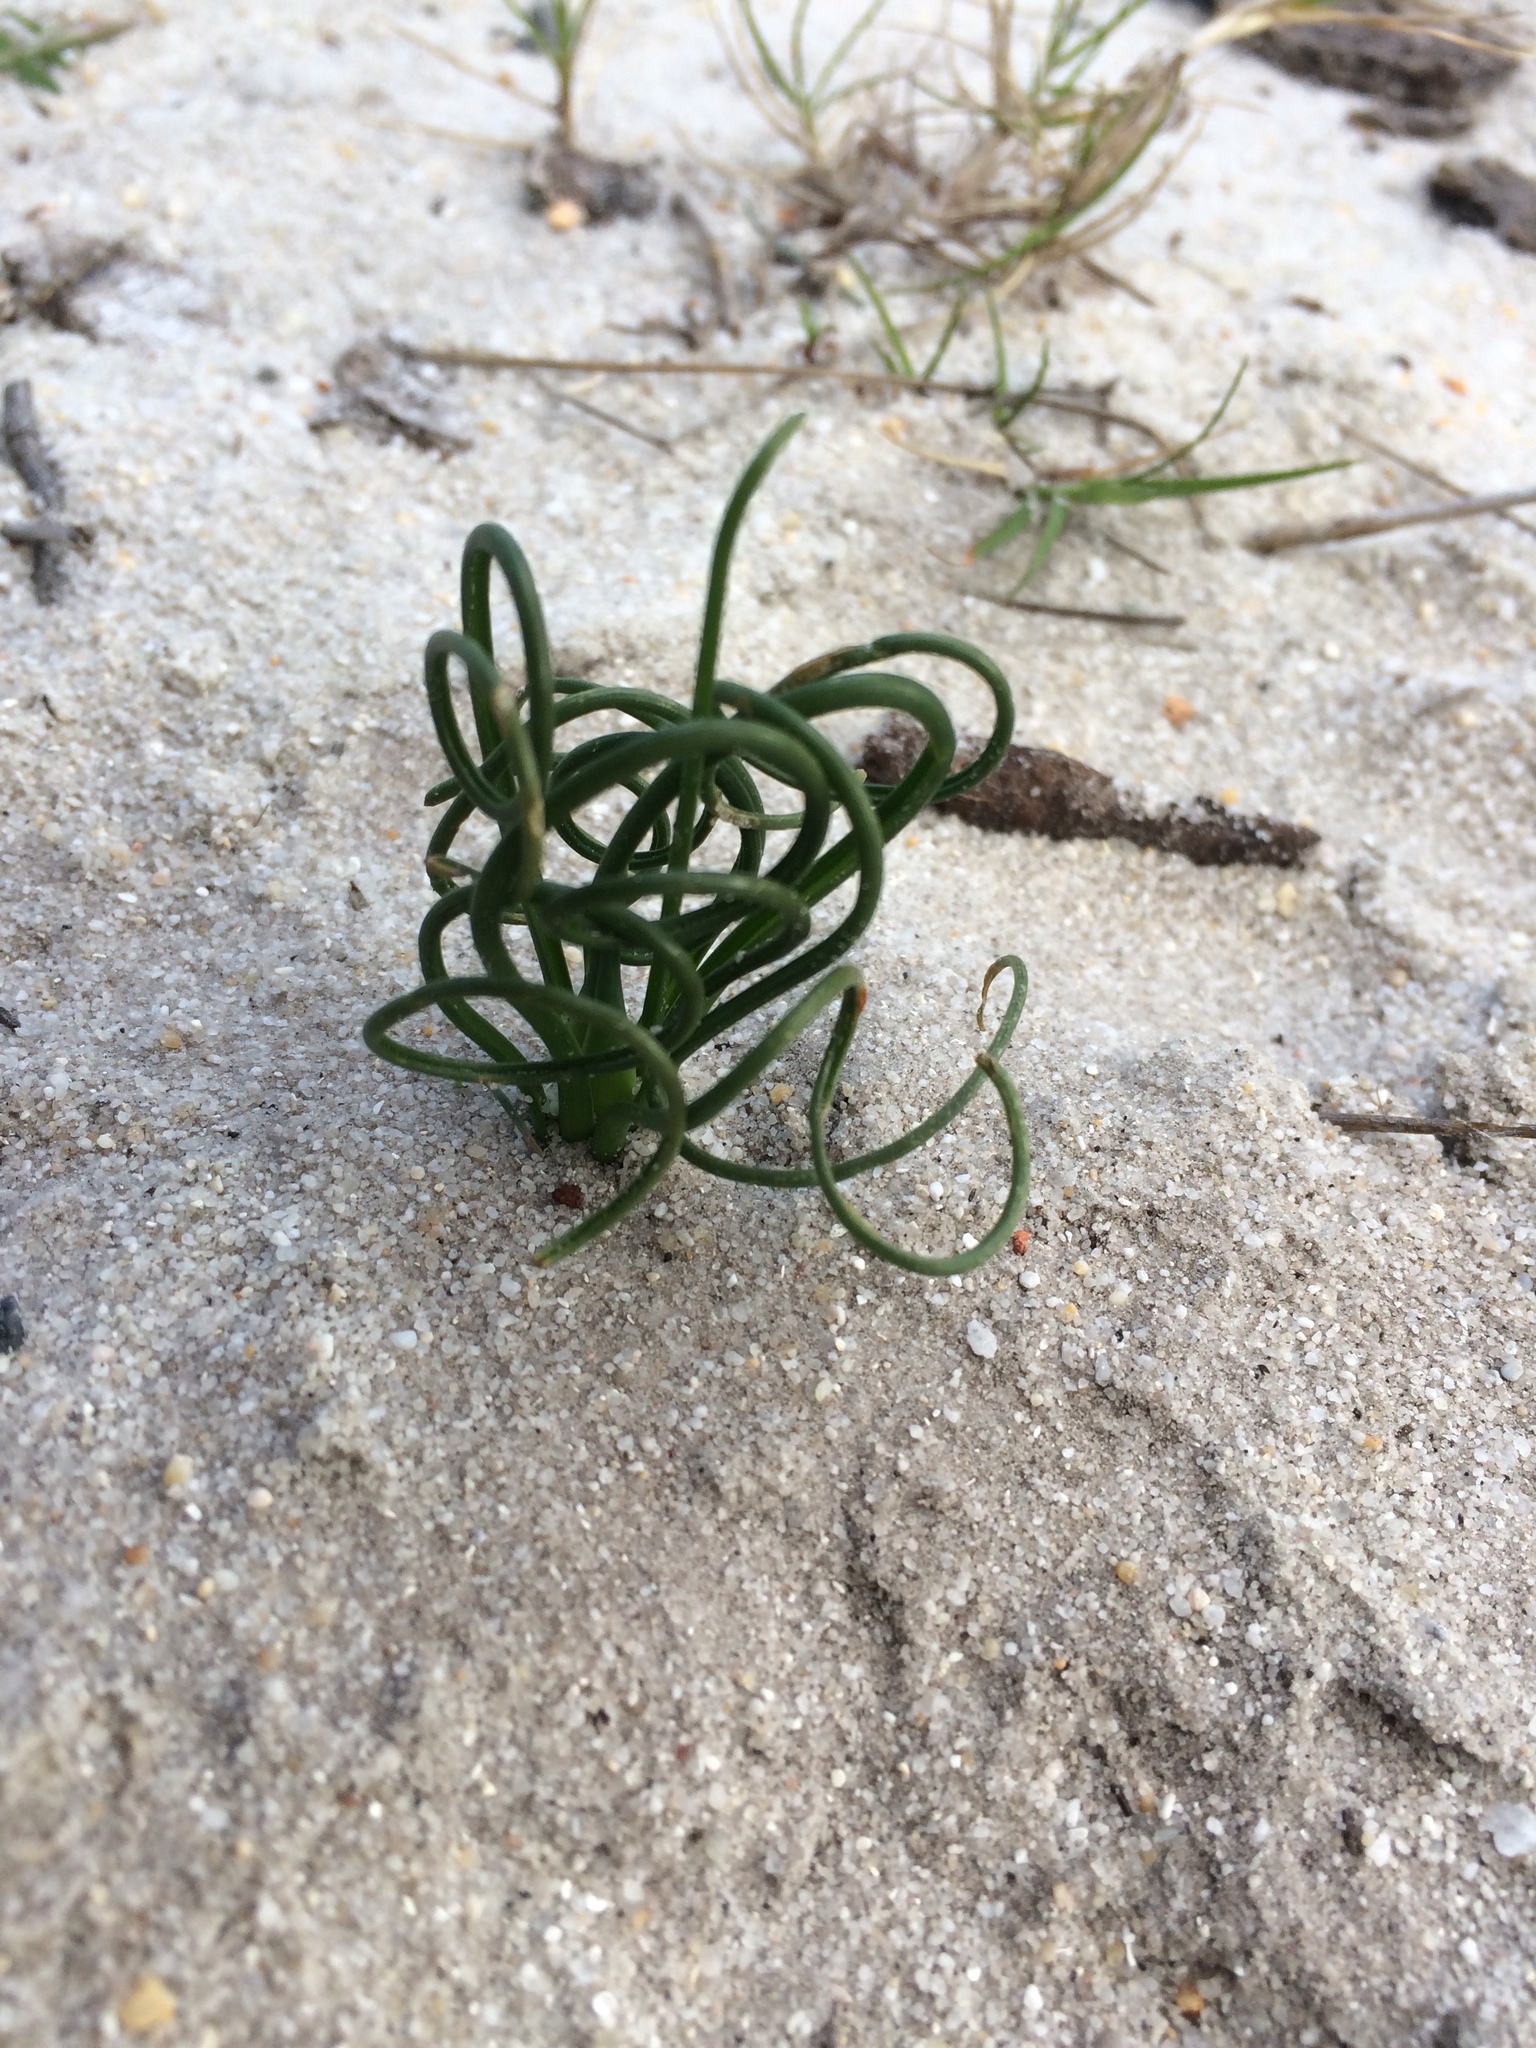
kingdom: Plantae
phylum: Tracheophyta
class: Liliopsida
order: Asparagales
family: Asparagaceae
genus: Albuca
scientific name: Albuca spiralis
